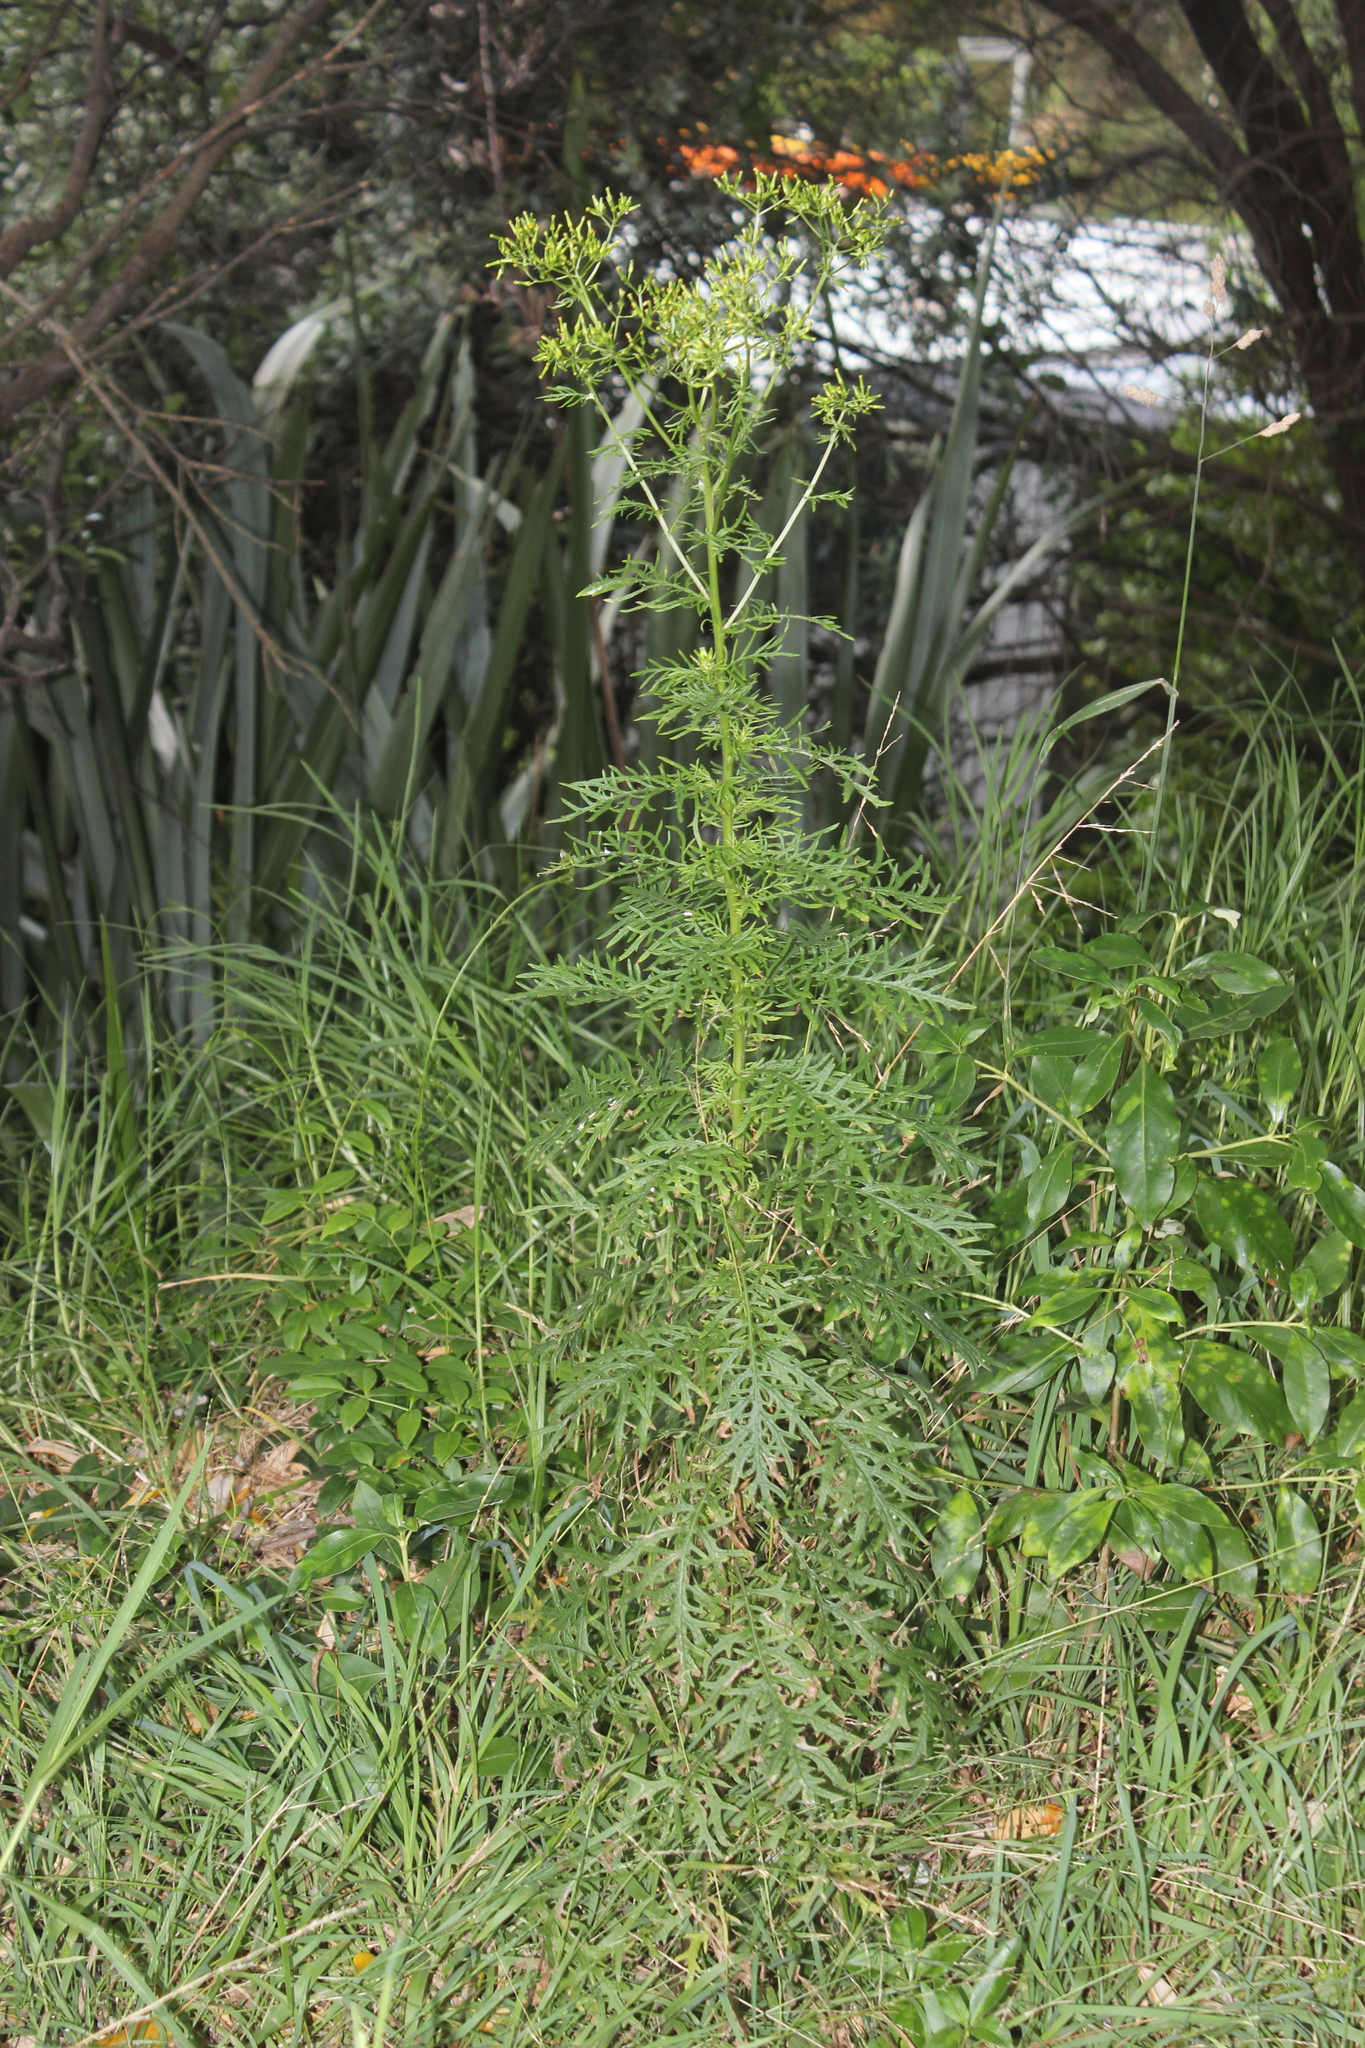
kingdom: Plantae
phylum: Tracheophyta
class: Magnoliopsida
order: Asterales
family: Asteraceae
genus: Senecio
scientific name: Senecio bipinnatisectus
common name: Australian fireweed
